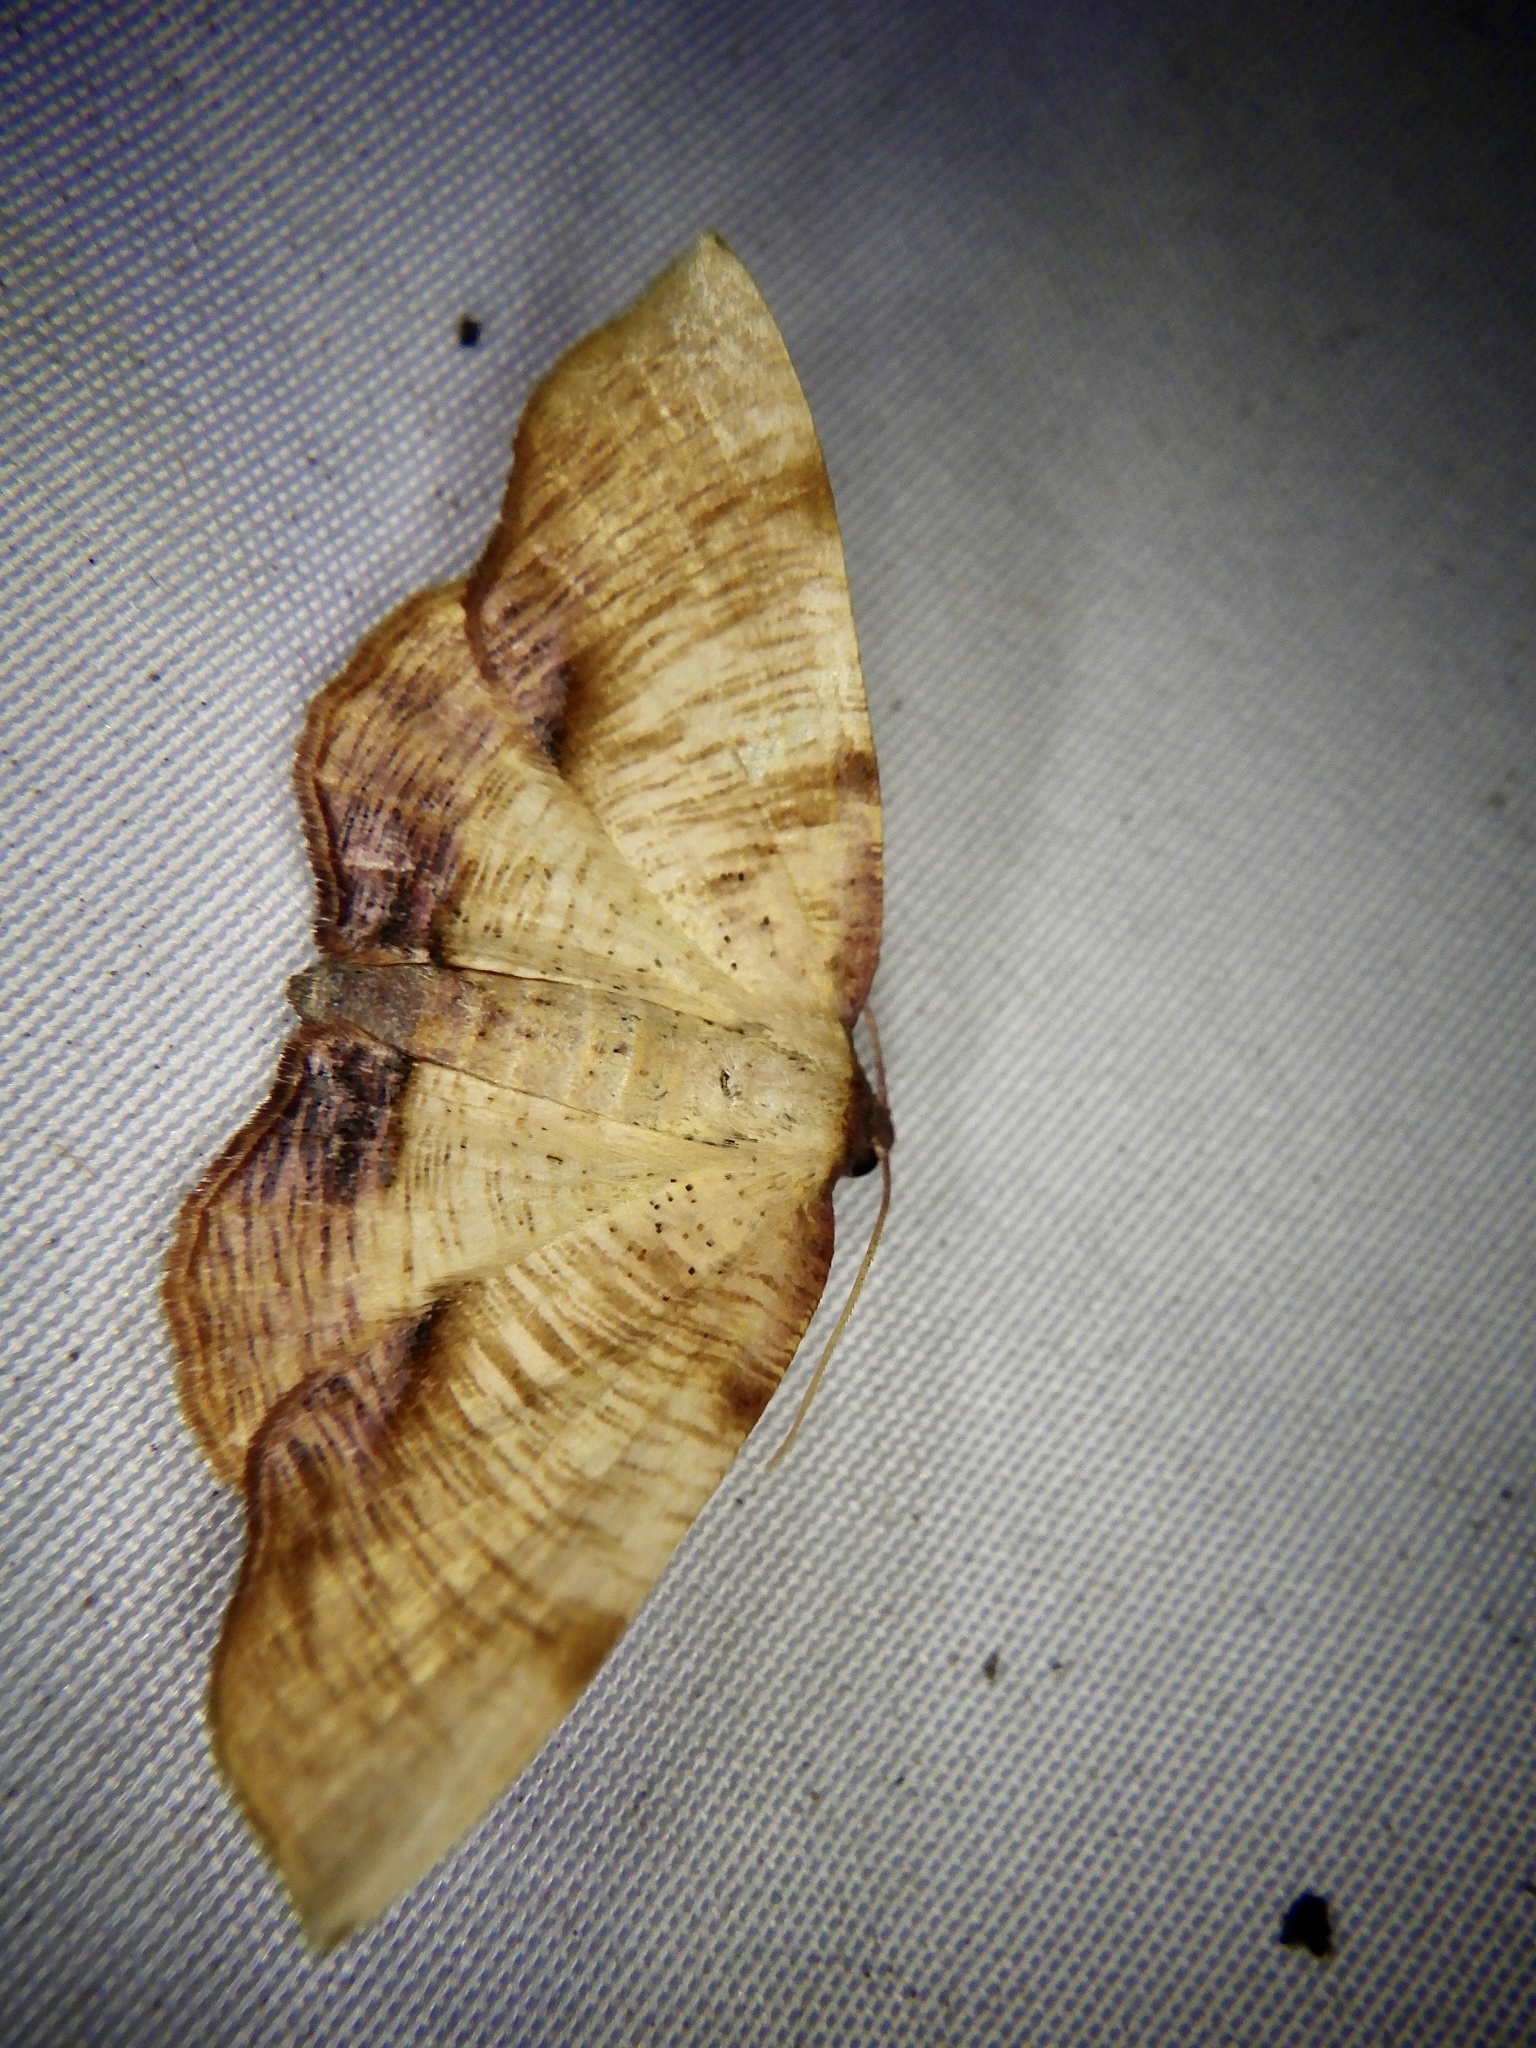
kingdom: Animalia
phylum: Arthropoda
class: Insecta
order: Lepidoptera
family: Geometridae
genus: Plagodis
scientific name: Plagodis dolabraria
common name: Scorched wing
